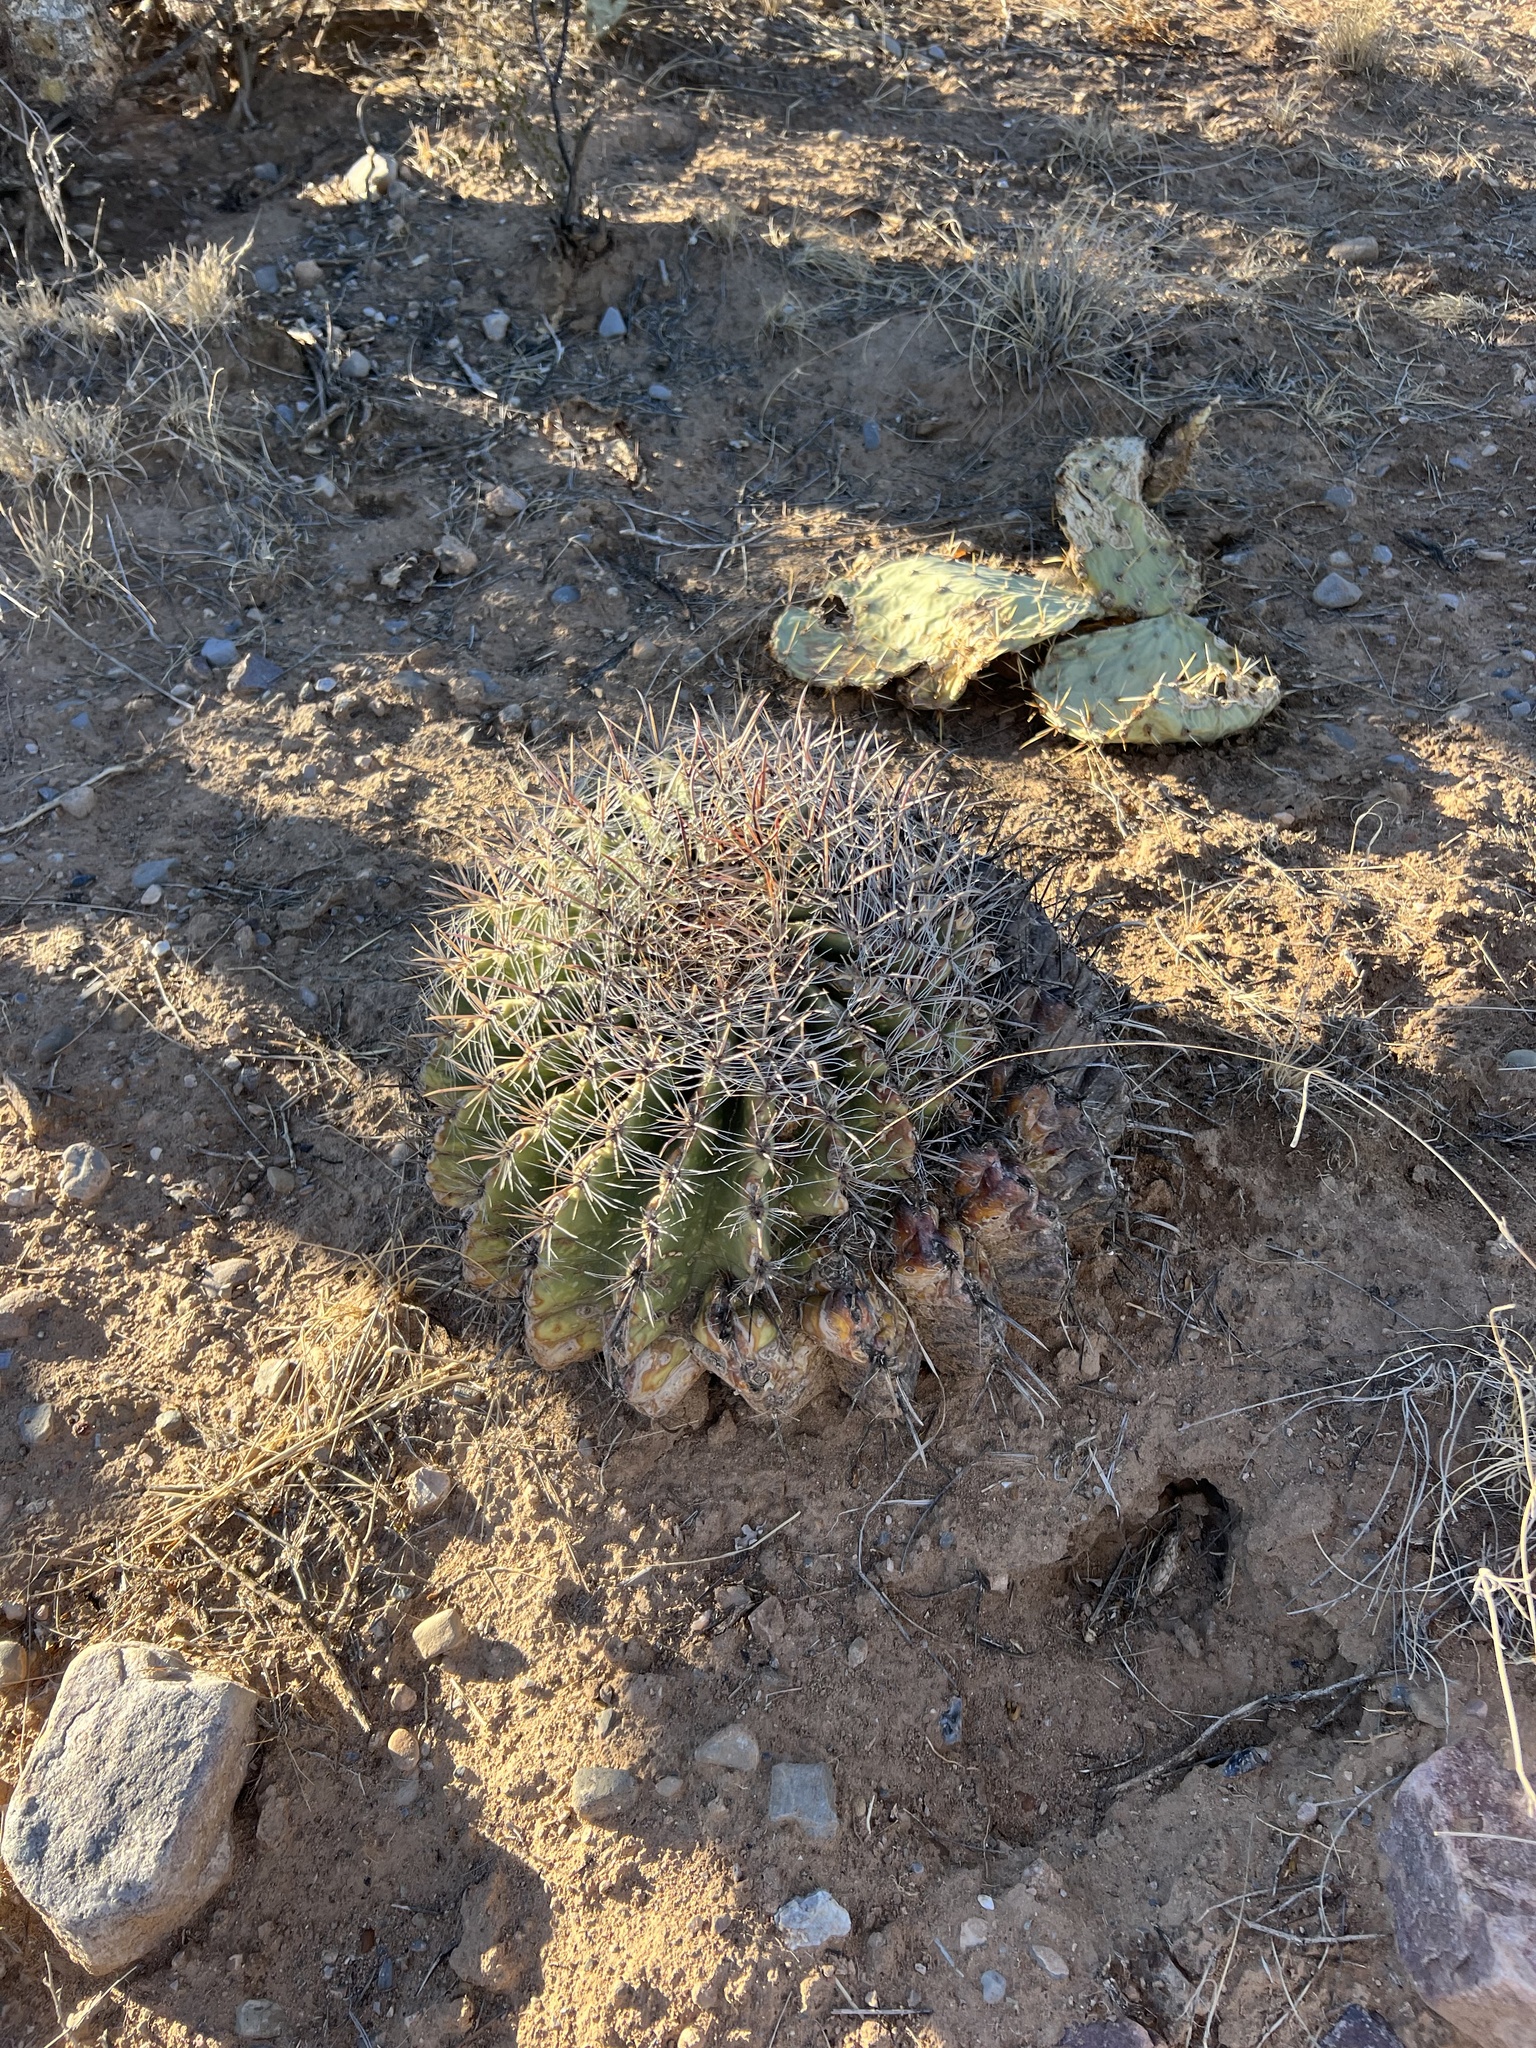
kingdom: Plantae
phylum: Tracheophyta
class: Magnoliopsida
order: Caryophyllales
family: Cactaceae
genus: Ferocactus
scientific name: Ferocactus wislizeni
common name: Candy barrel cactus
